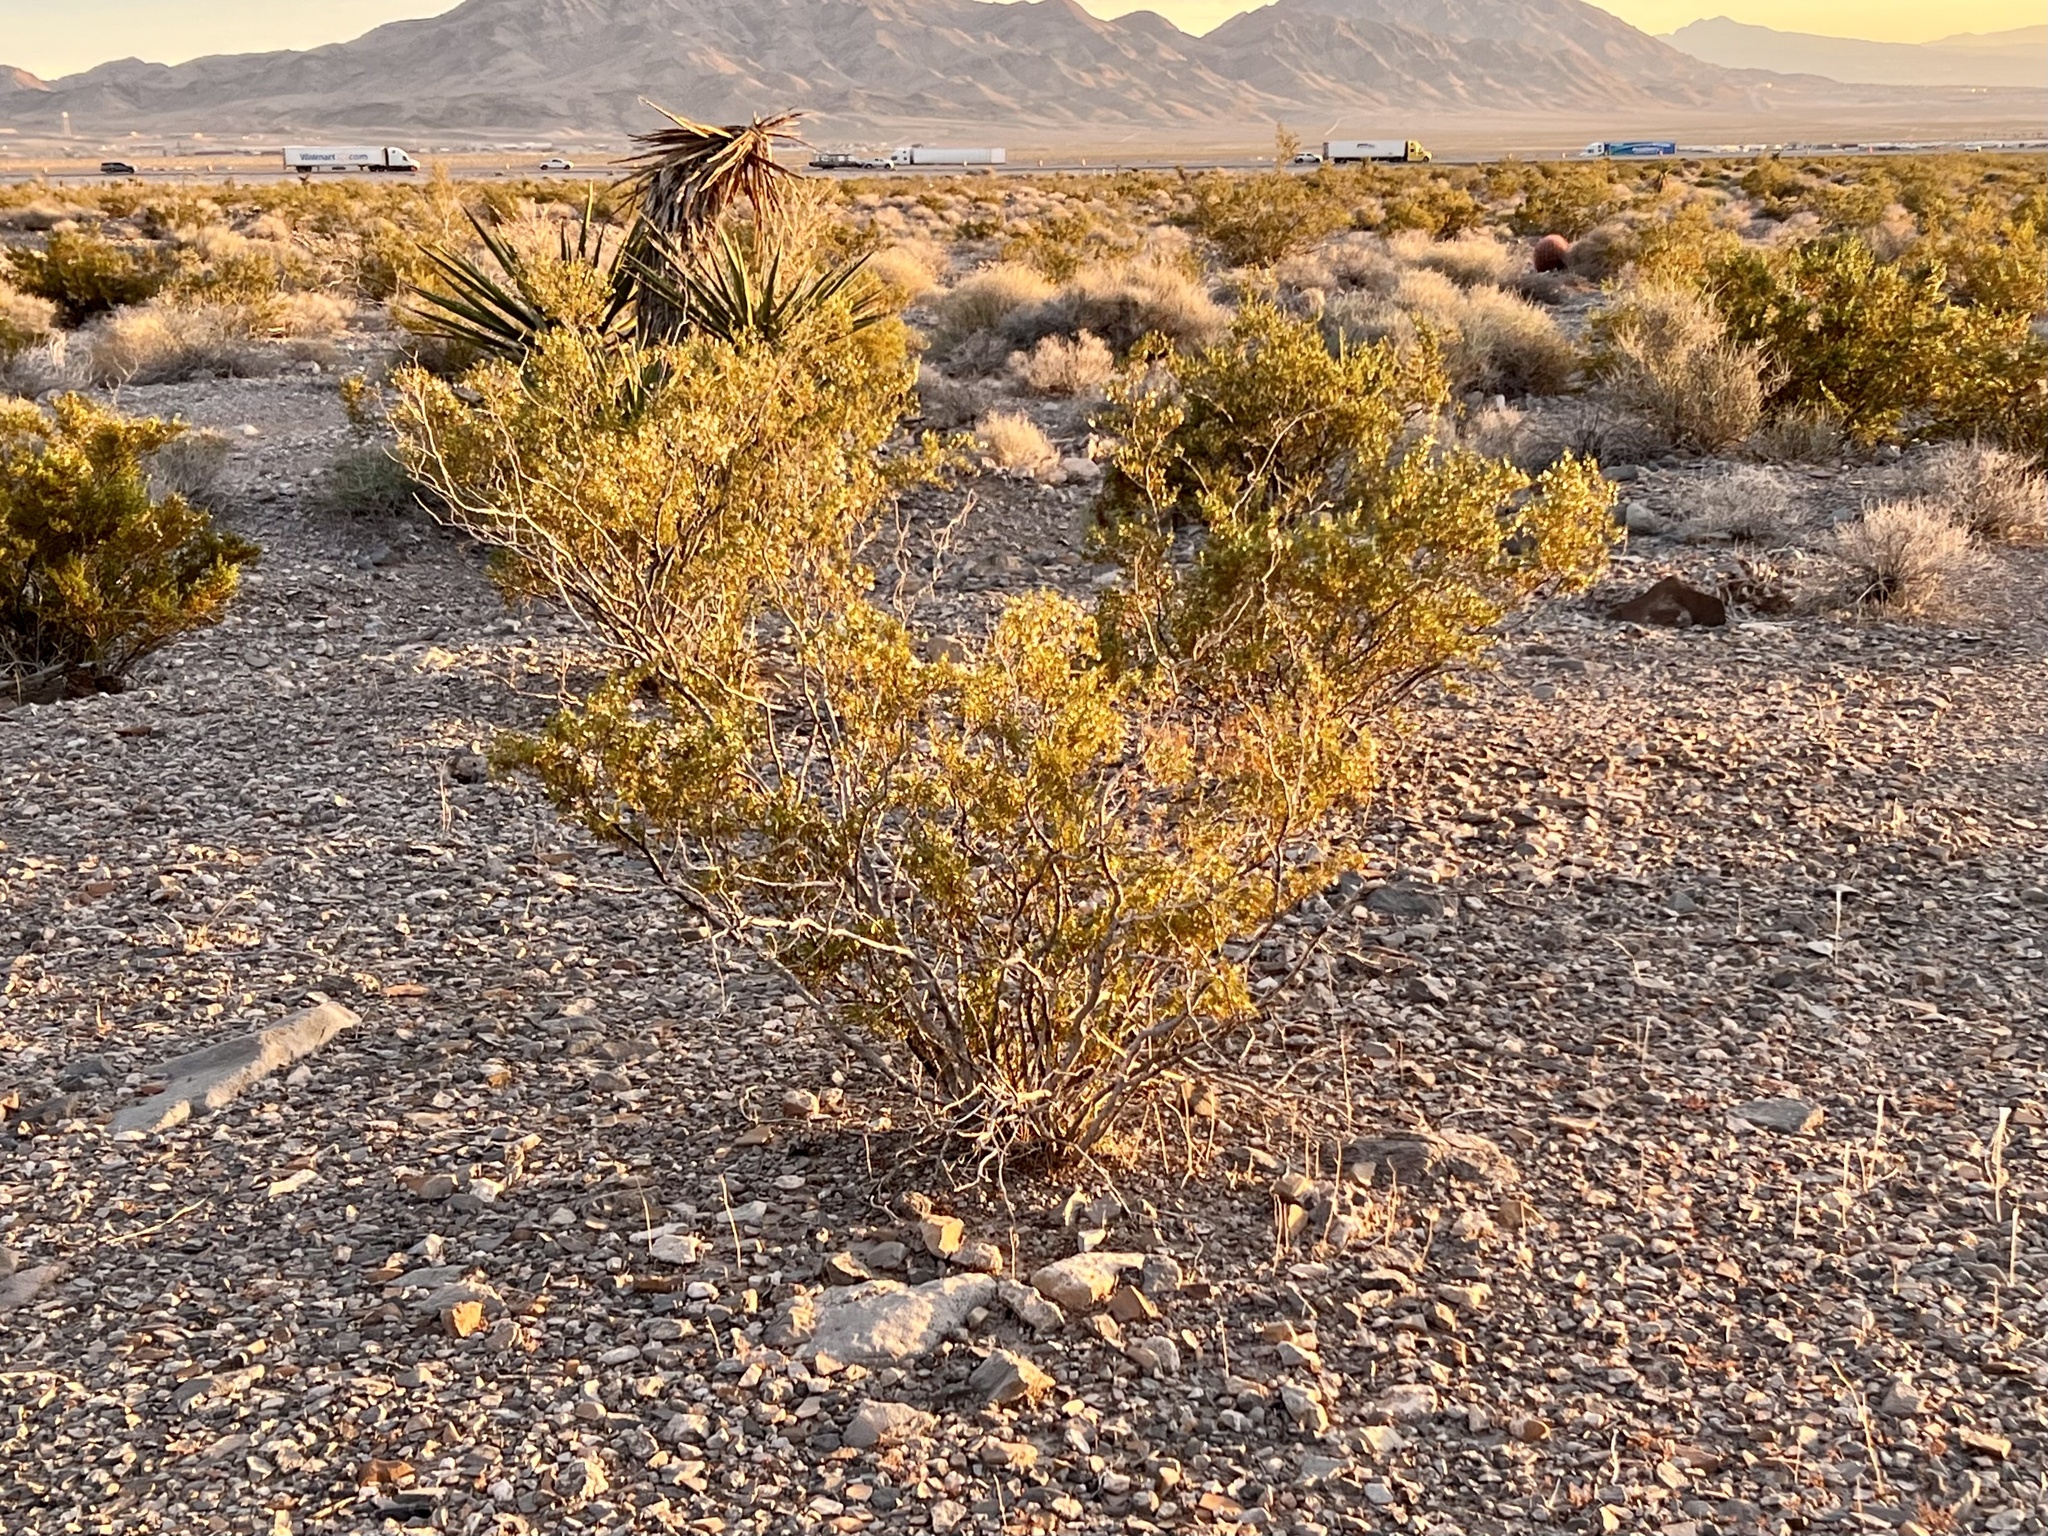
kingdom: Plantae
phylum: Tracheophyta
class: Magnoliopsida
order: Zygophyllales
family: Zygophyllaceae
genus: Larrea
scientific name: Larrea tridentata
